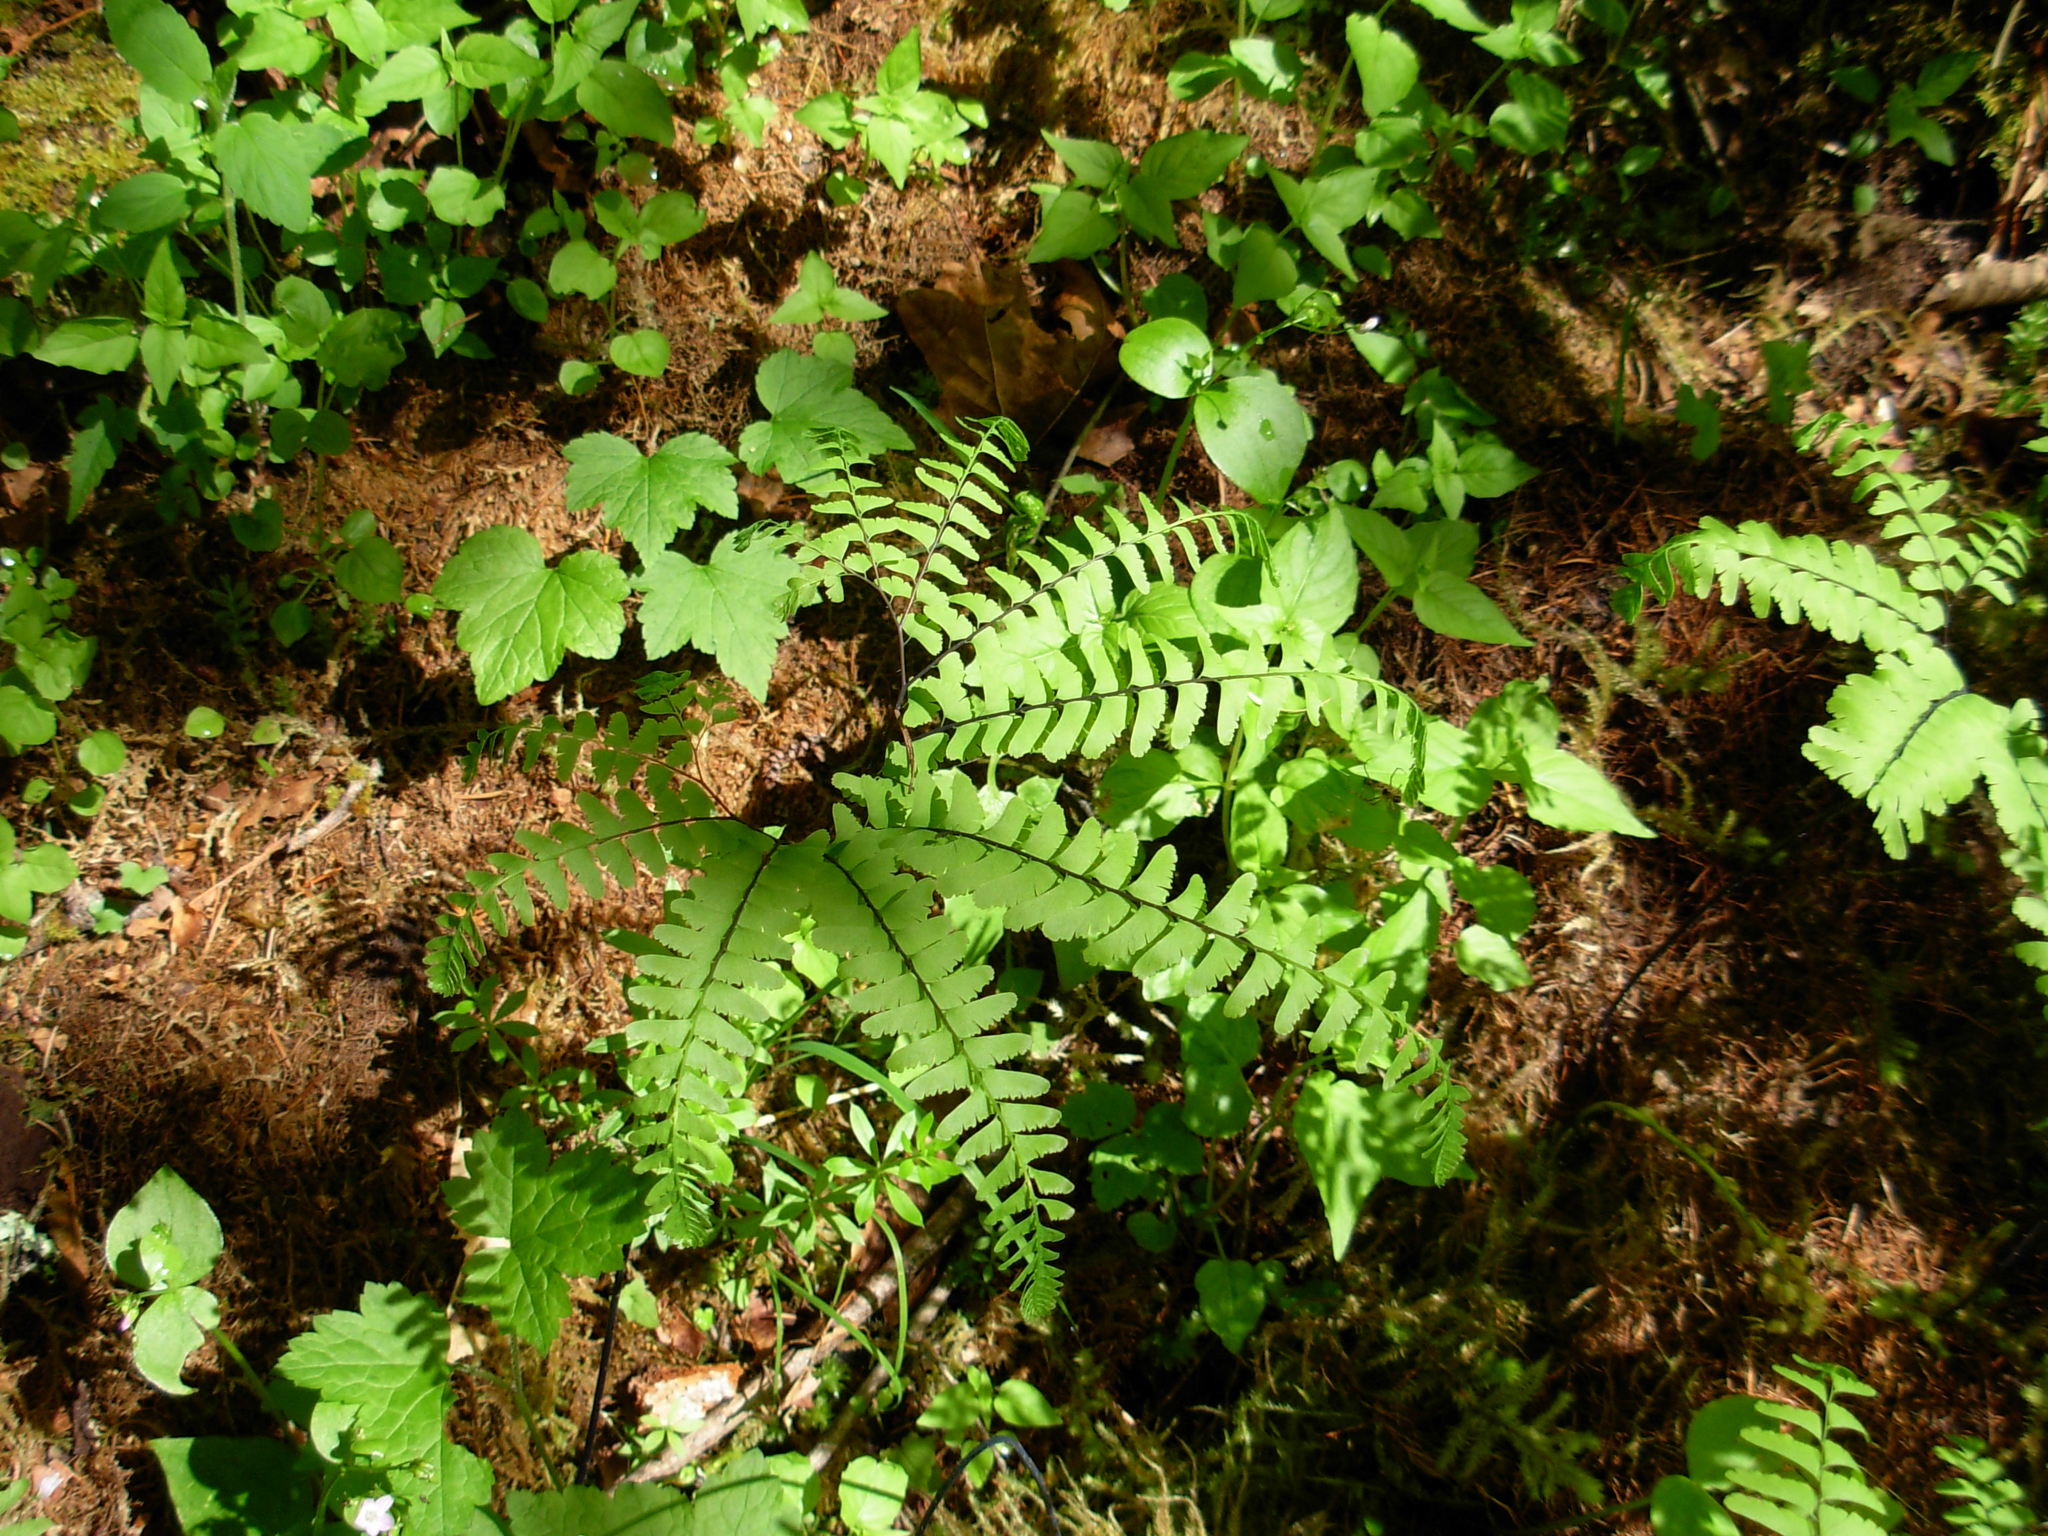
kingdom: Plantae
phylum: Tracheophyta
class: Polypodiopsida
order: Polypodiales
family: Pteridaceae
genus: Adiantum
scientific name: Adiantum aleuticum
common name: Aleutian maidenhair fern
